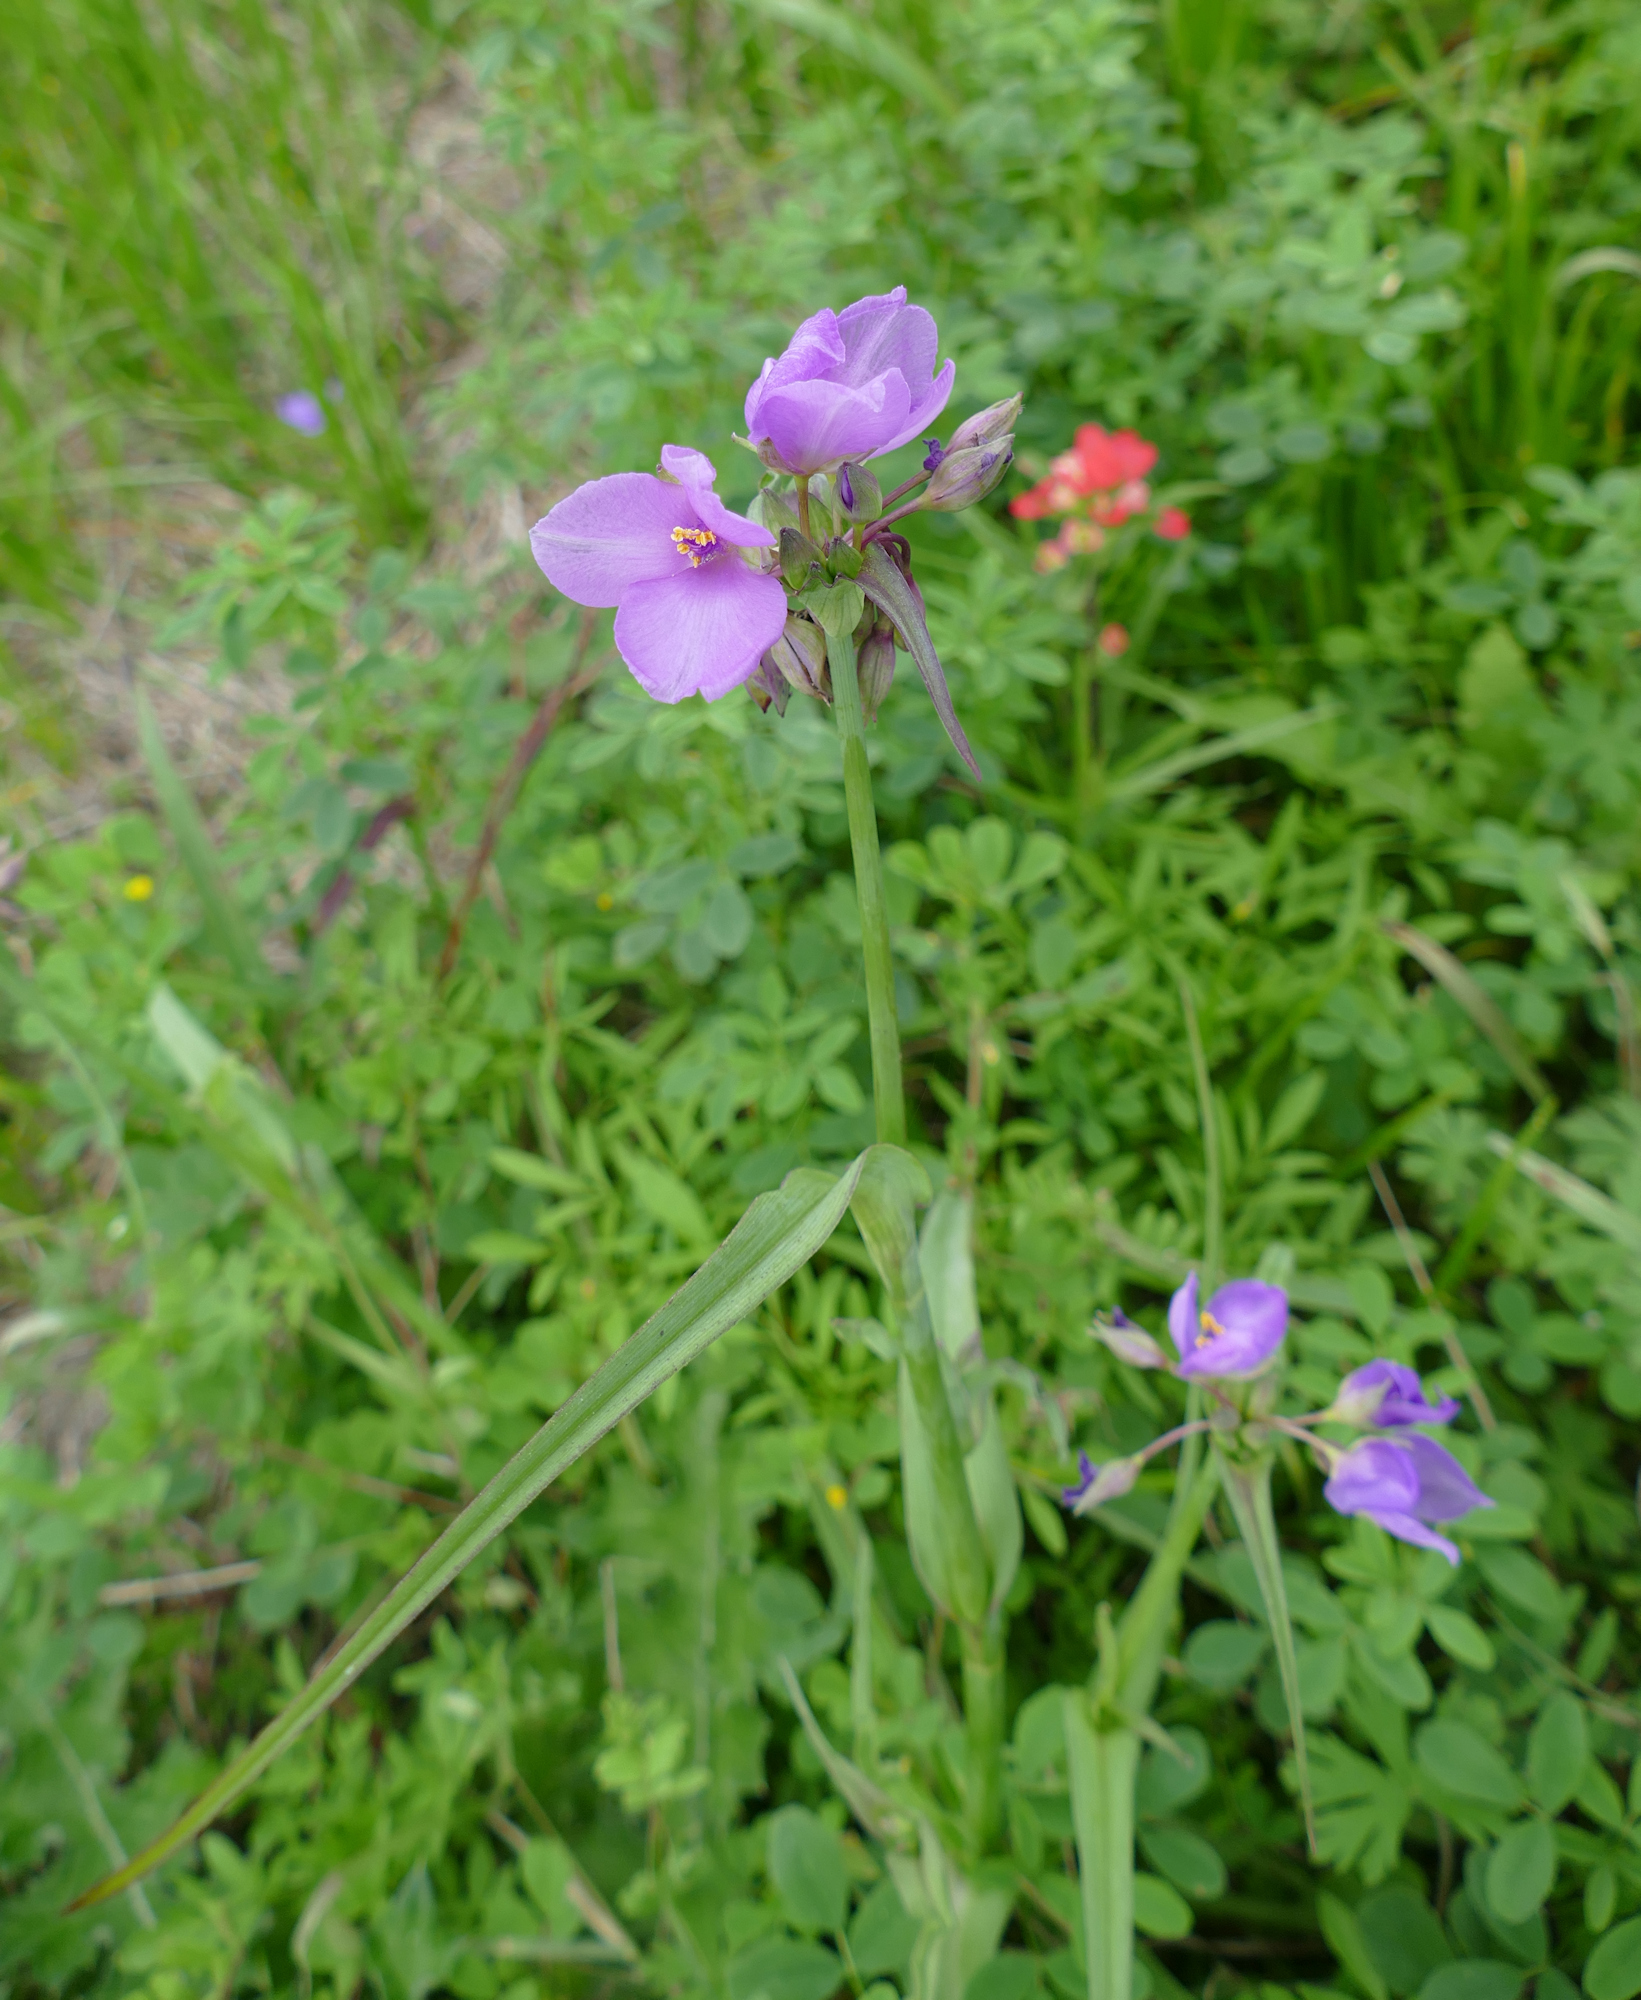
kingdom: Plantae
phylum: Tracheophyta
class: Liliopsida
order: Commelinales
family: Commelinaceae
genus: Tradescantia
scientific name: Tradescantia ohiensis
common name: Ohio spiderwort
